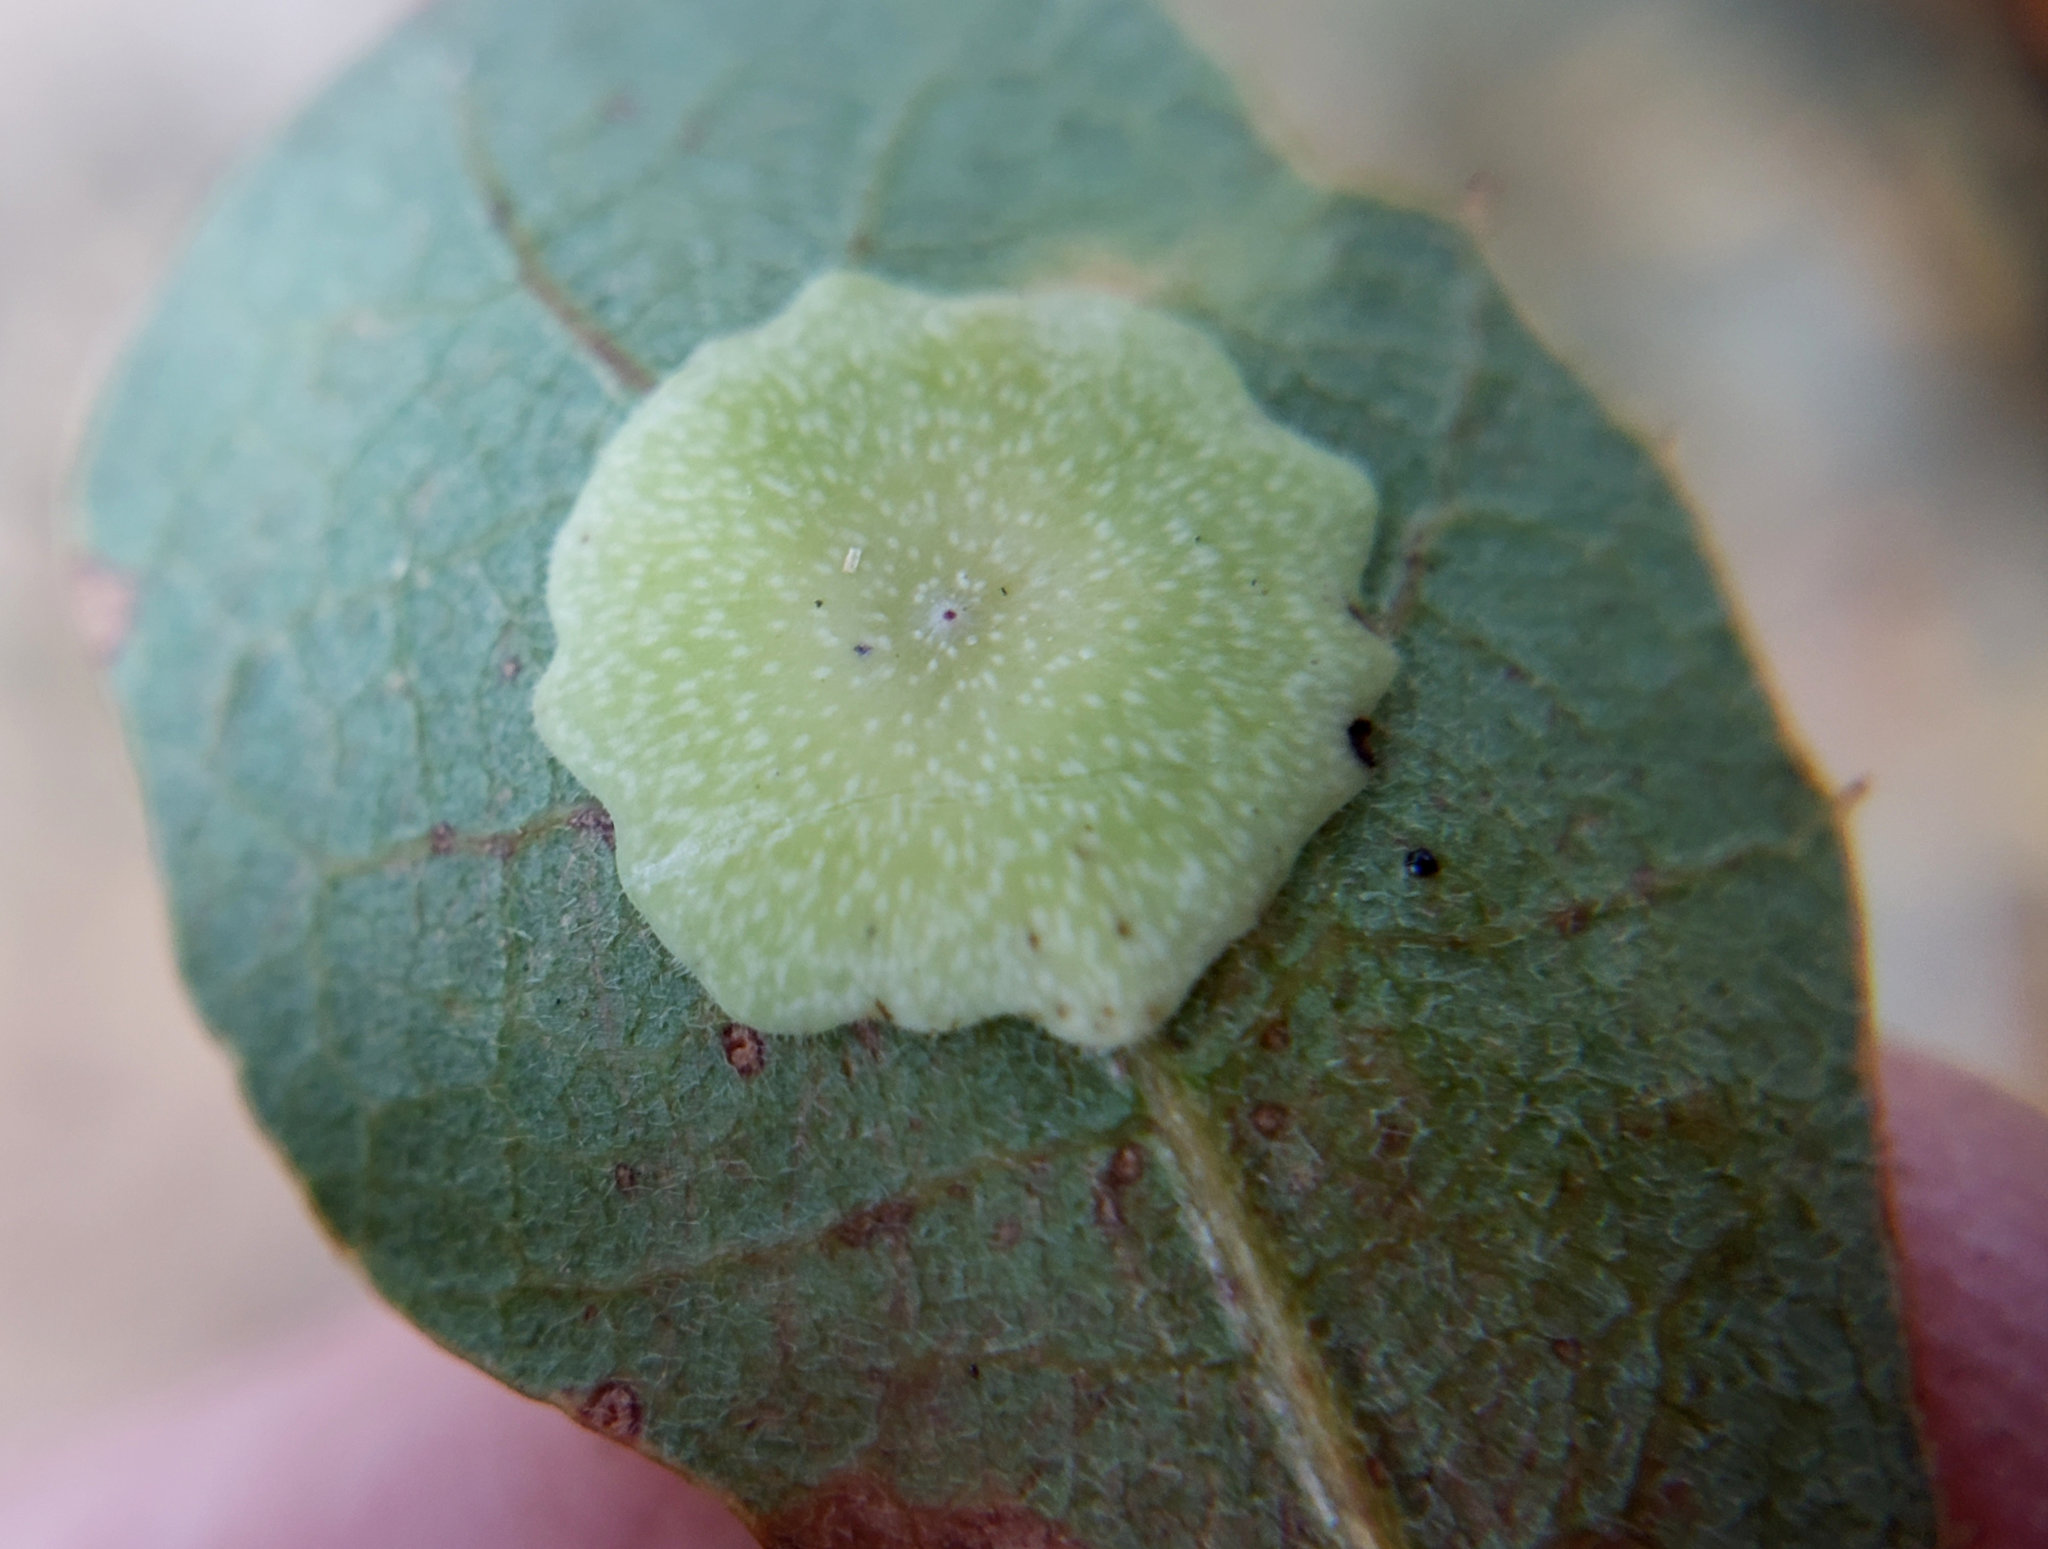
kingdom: Animalia
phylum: Arthropoda
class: Insecta
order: Hymenoptera
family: Cynipidae
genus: Andricus
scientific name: Andricus
